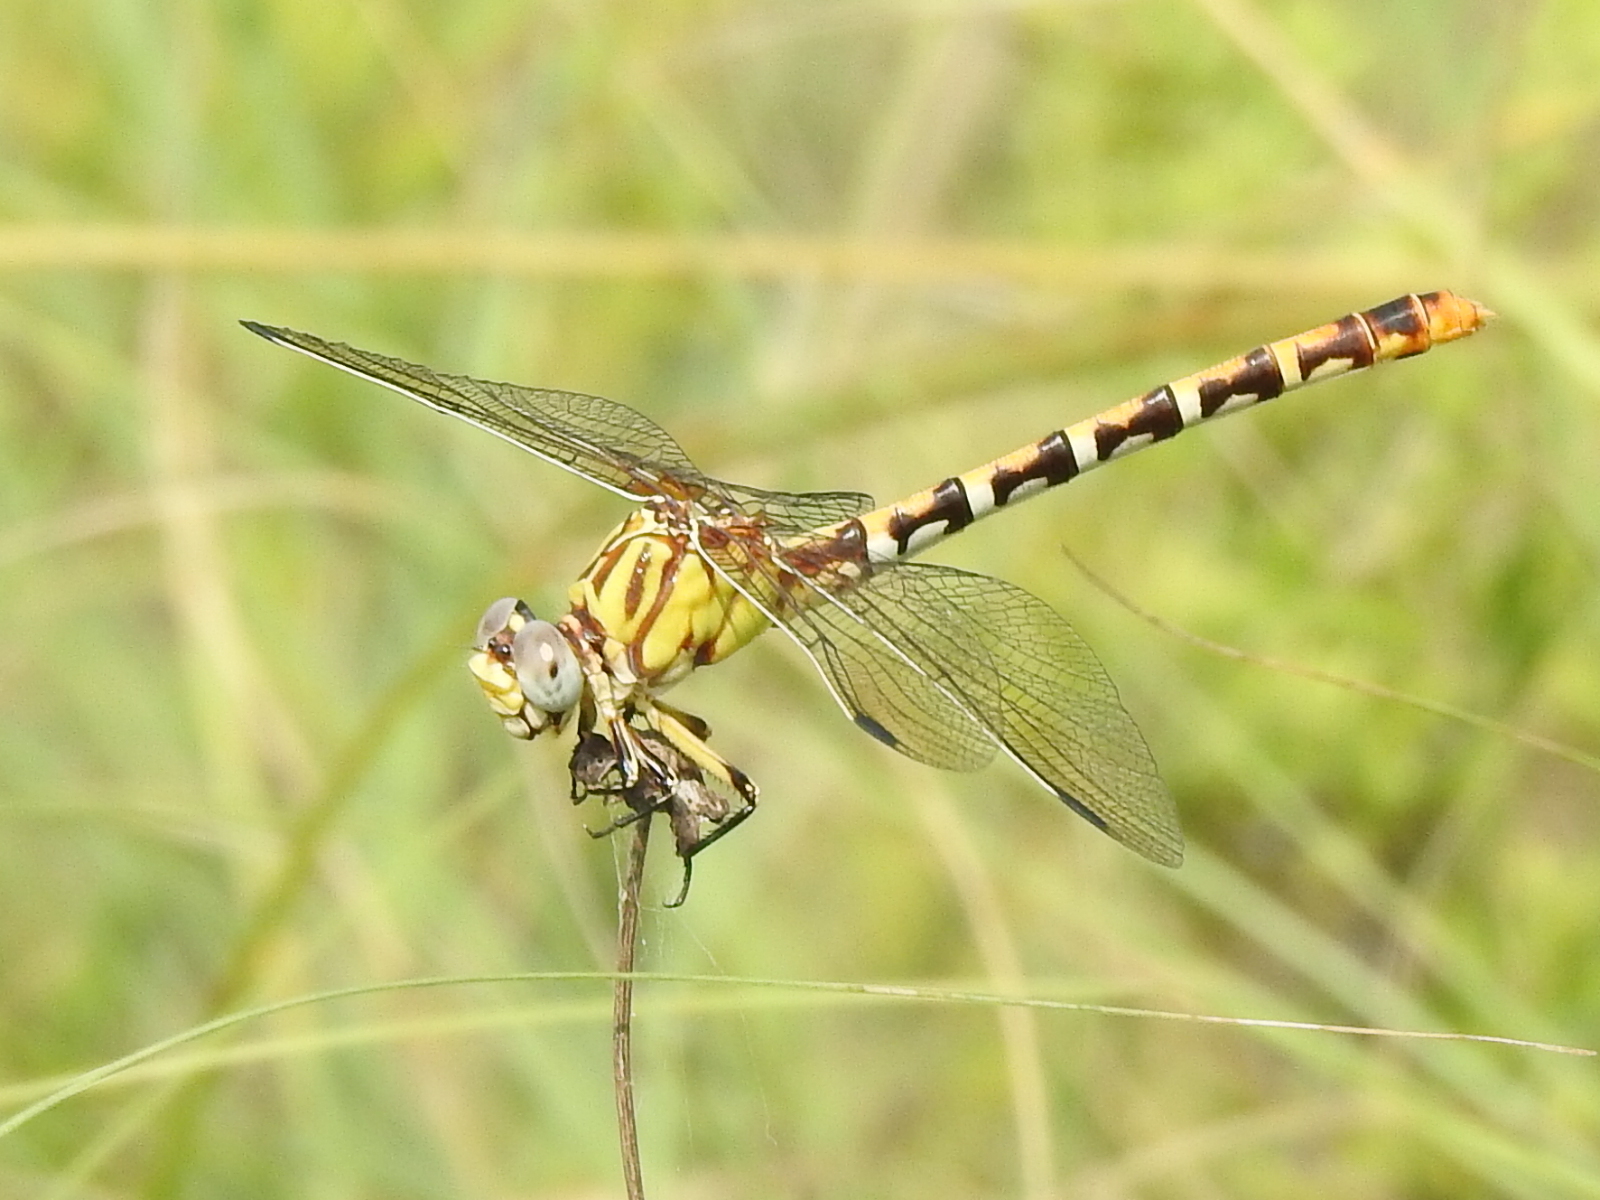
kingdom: Animalia
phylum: Arthropoda
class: Insecta
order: Odonata
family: Gomphidae
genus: Erpetogomphus
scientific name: Erpetogomphus designatus
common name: Eastern ringtail
